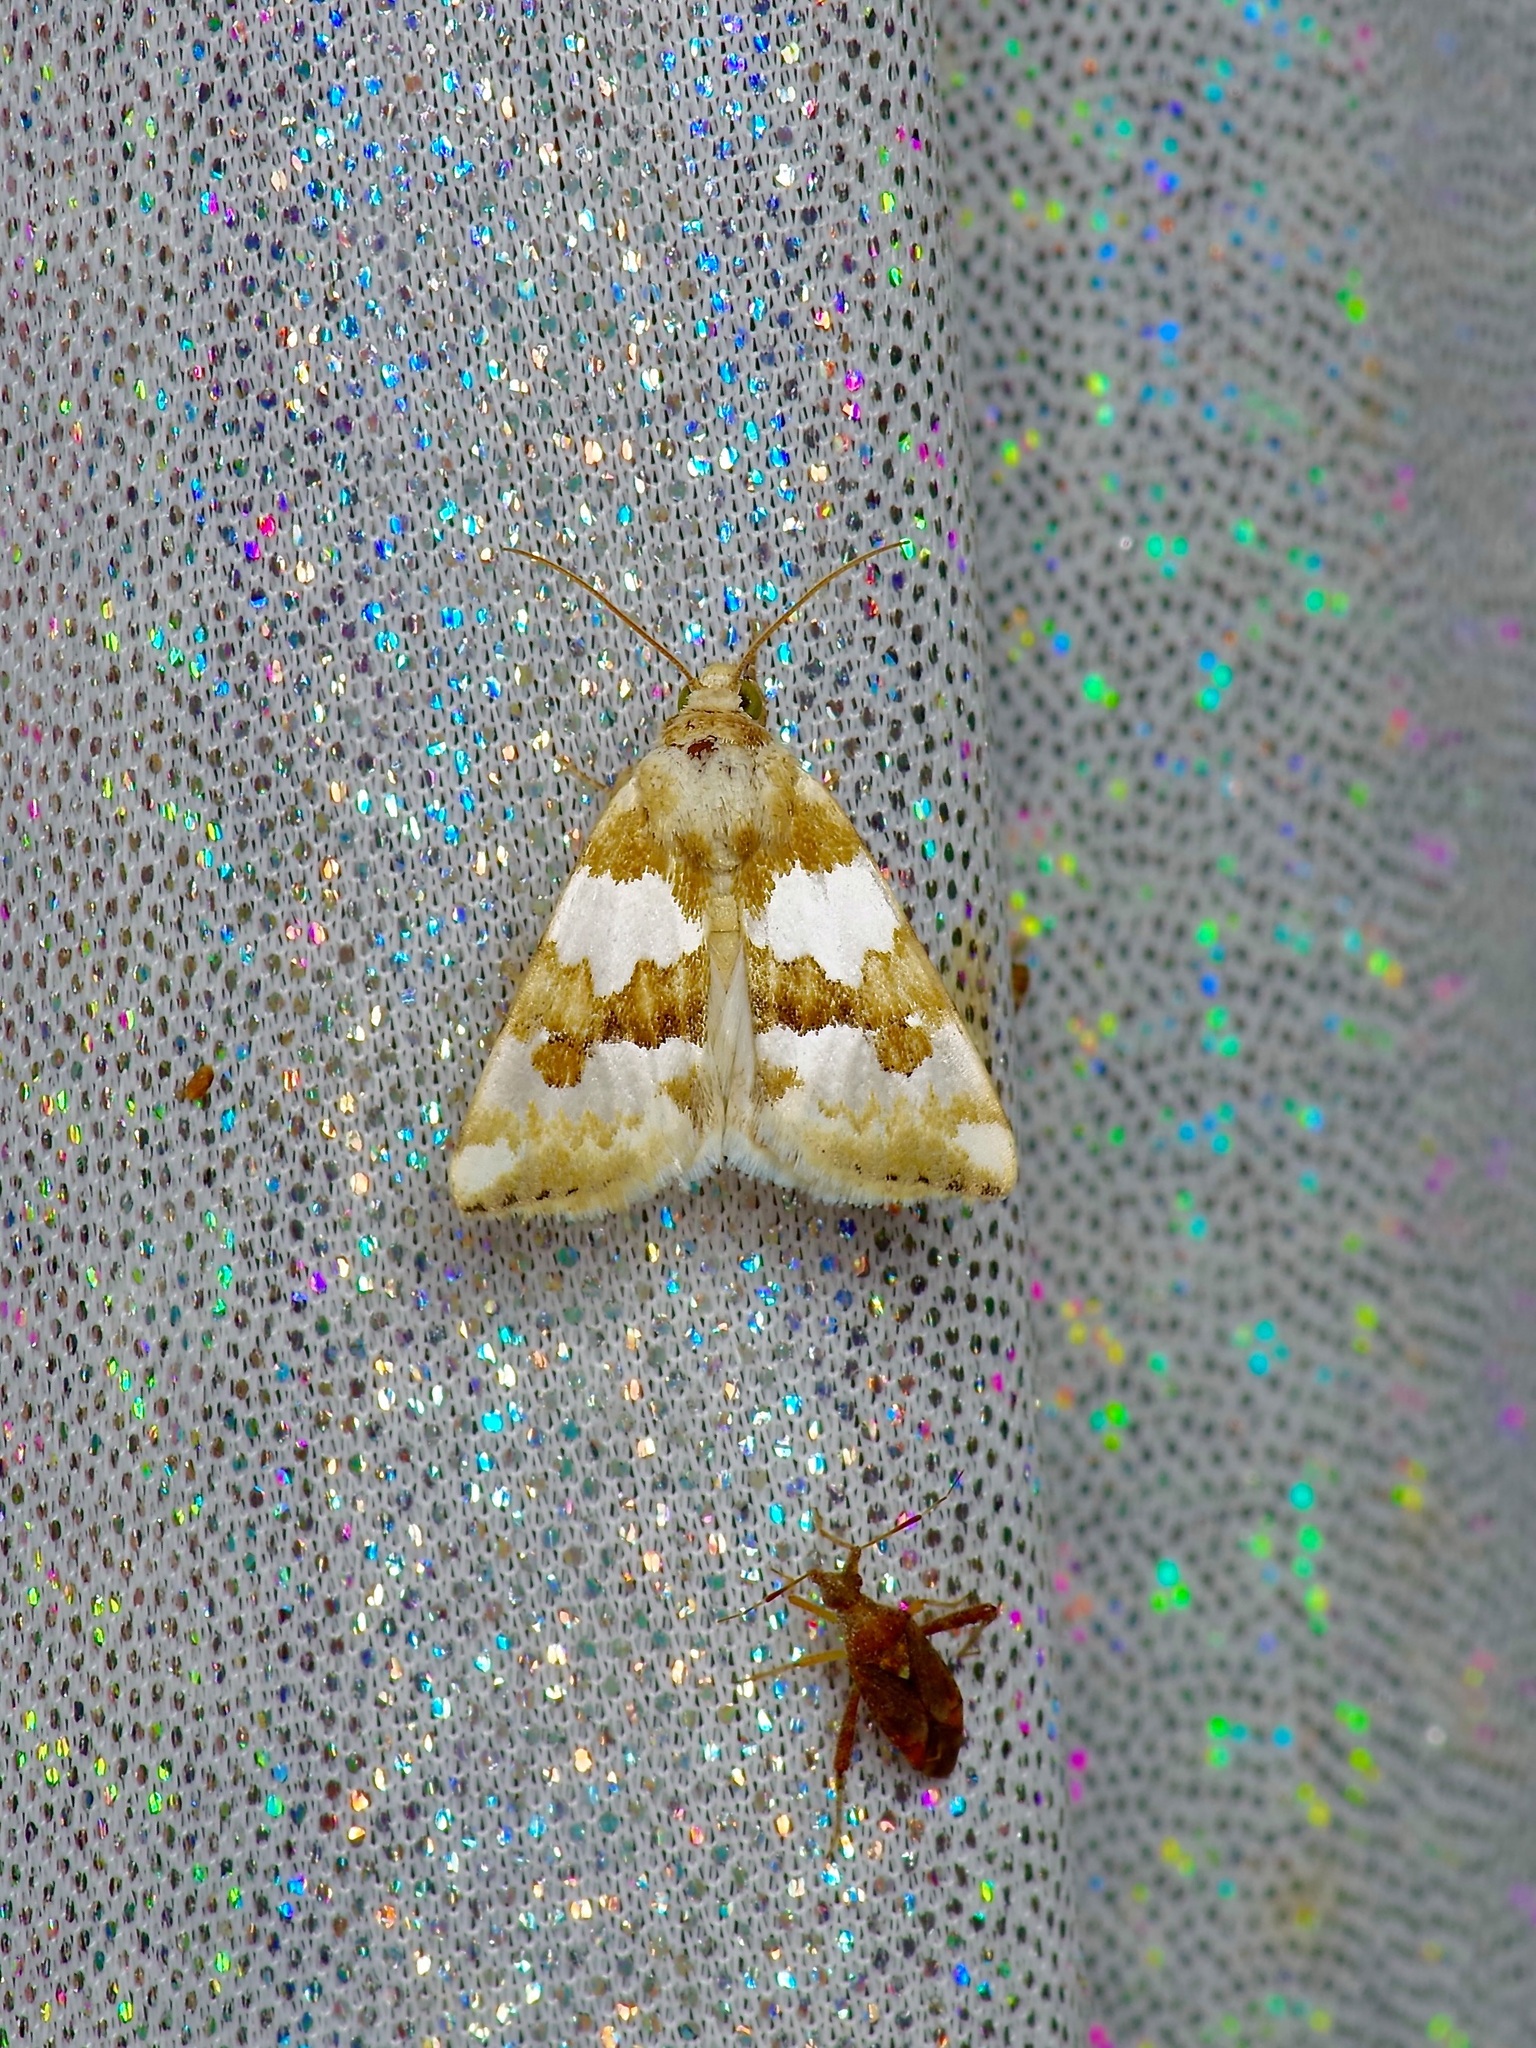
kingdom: Animalia
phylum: Arthropoda
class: Insecta
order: Lepidoptera
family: Noctuidae
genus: Schinia
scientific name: Schinia chrysellus
